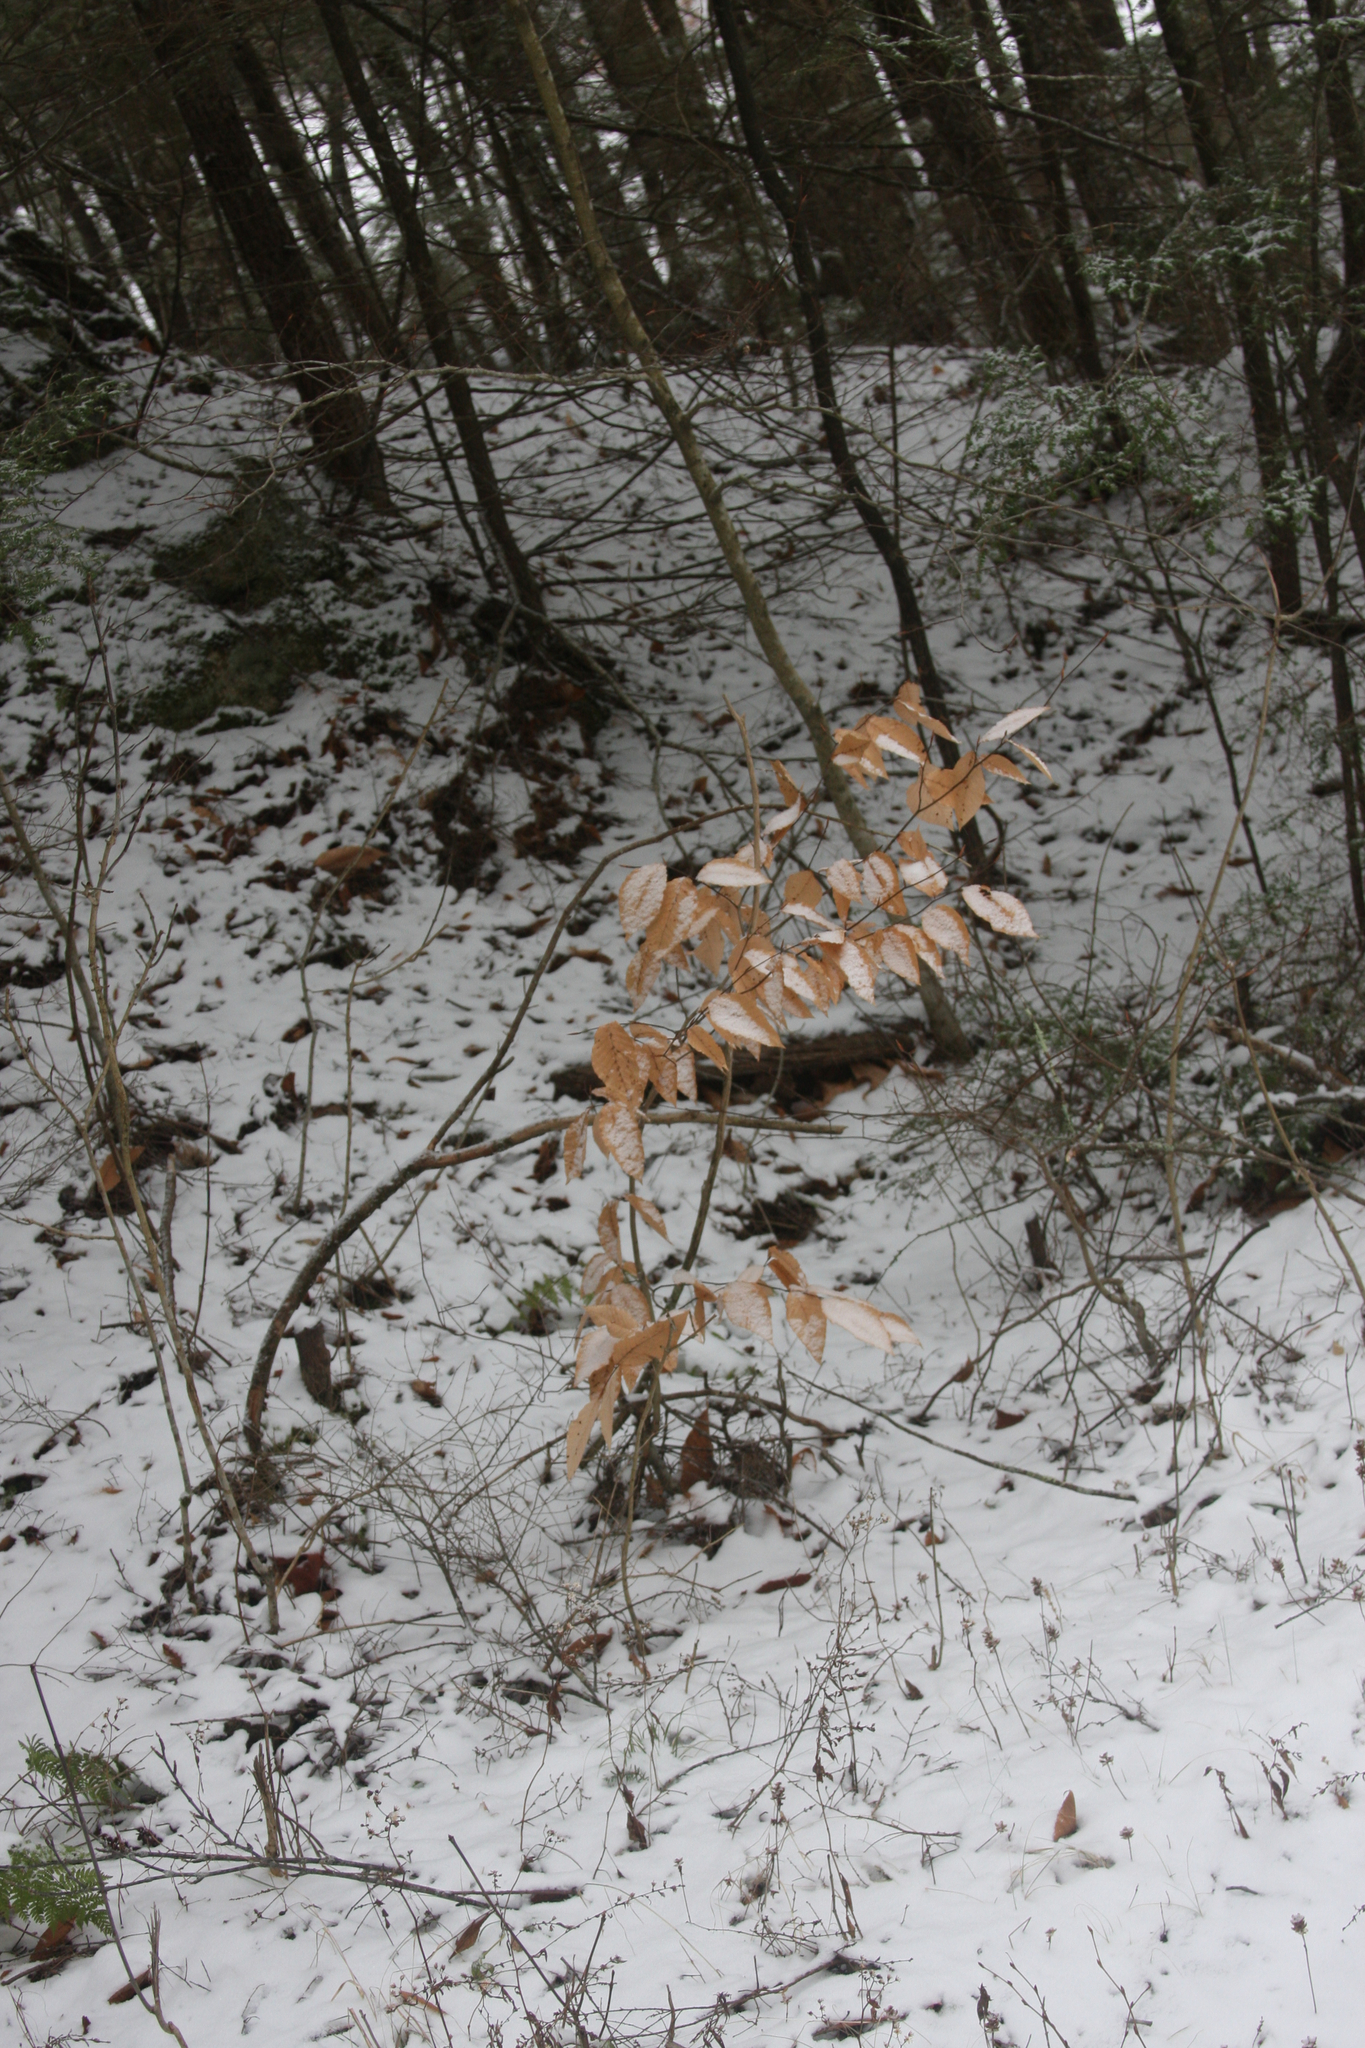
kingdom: Plantae
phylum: Tracheophyta
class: Magnoliopsida
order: Fagales
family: Fagaceae
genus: Fagus
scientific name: Fagus grandifolia
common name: American beech
